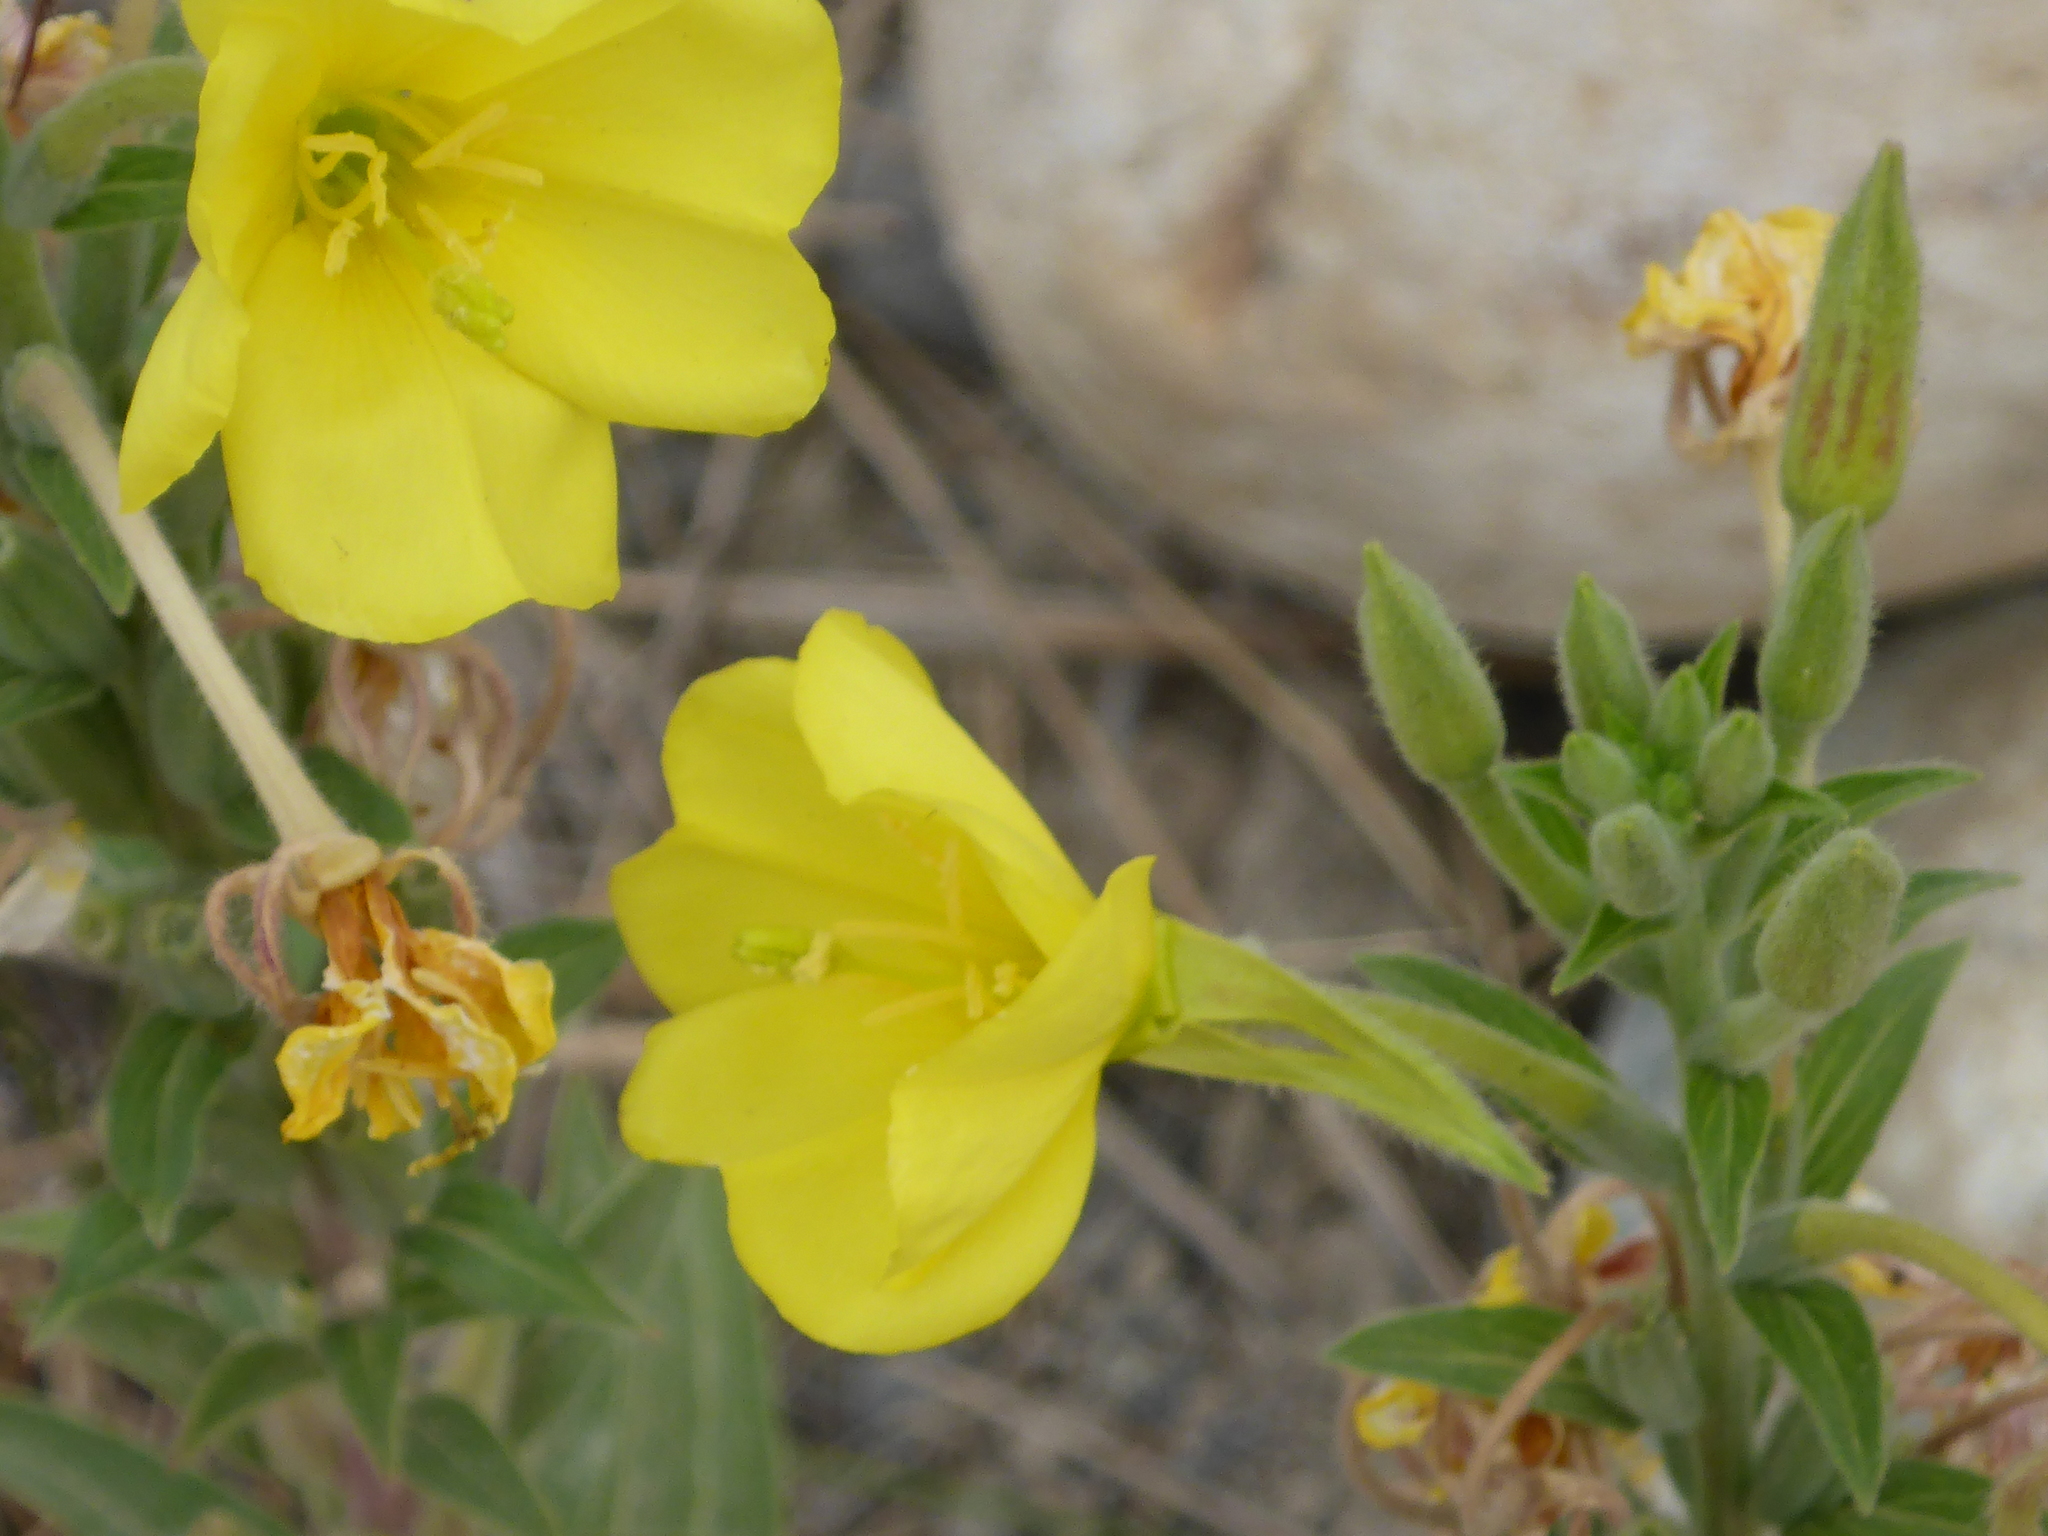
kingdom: Plantae
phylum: Tracheophyta
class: Magnoliopsida
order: Myrtales
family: Onagraceae
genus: Oenothera
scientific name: Oenothera biennis
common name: Common evening-primrose
